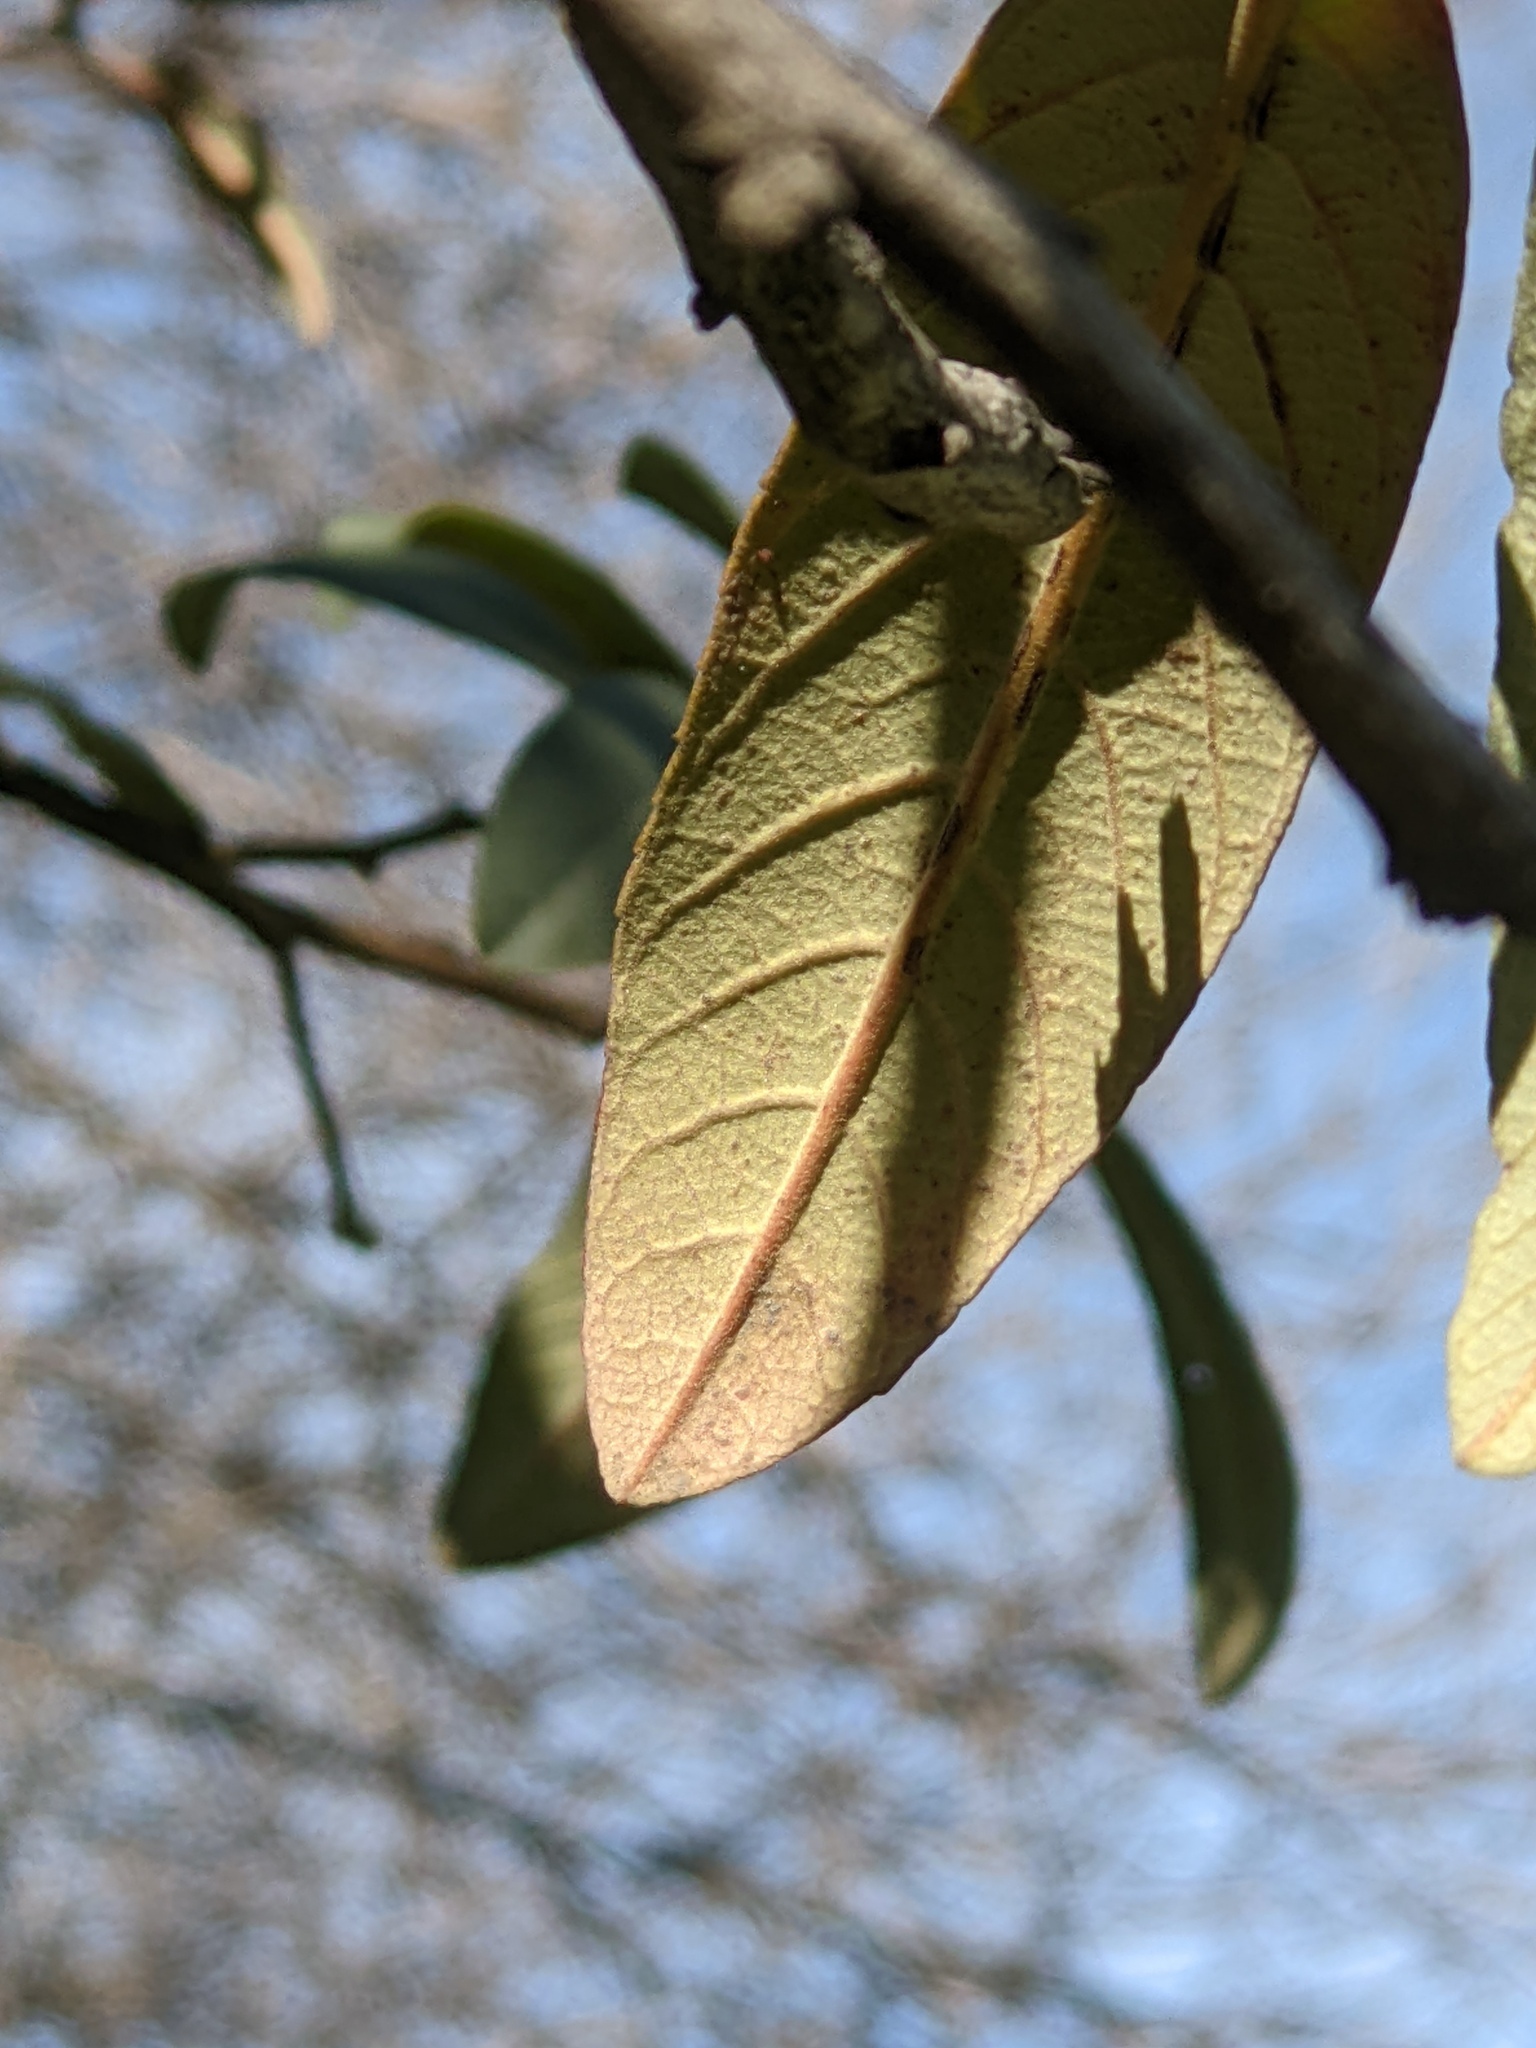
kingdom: Plantae
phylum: Tracheophyta
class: Magnoliopsida
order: Rosales
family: Rhamnaceae
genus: Frangula
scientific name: Frangula californica
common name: California buckthorn
